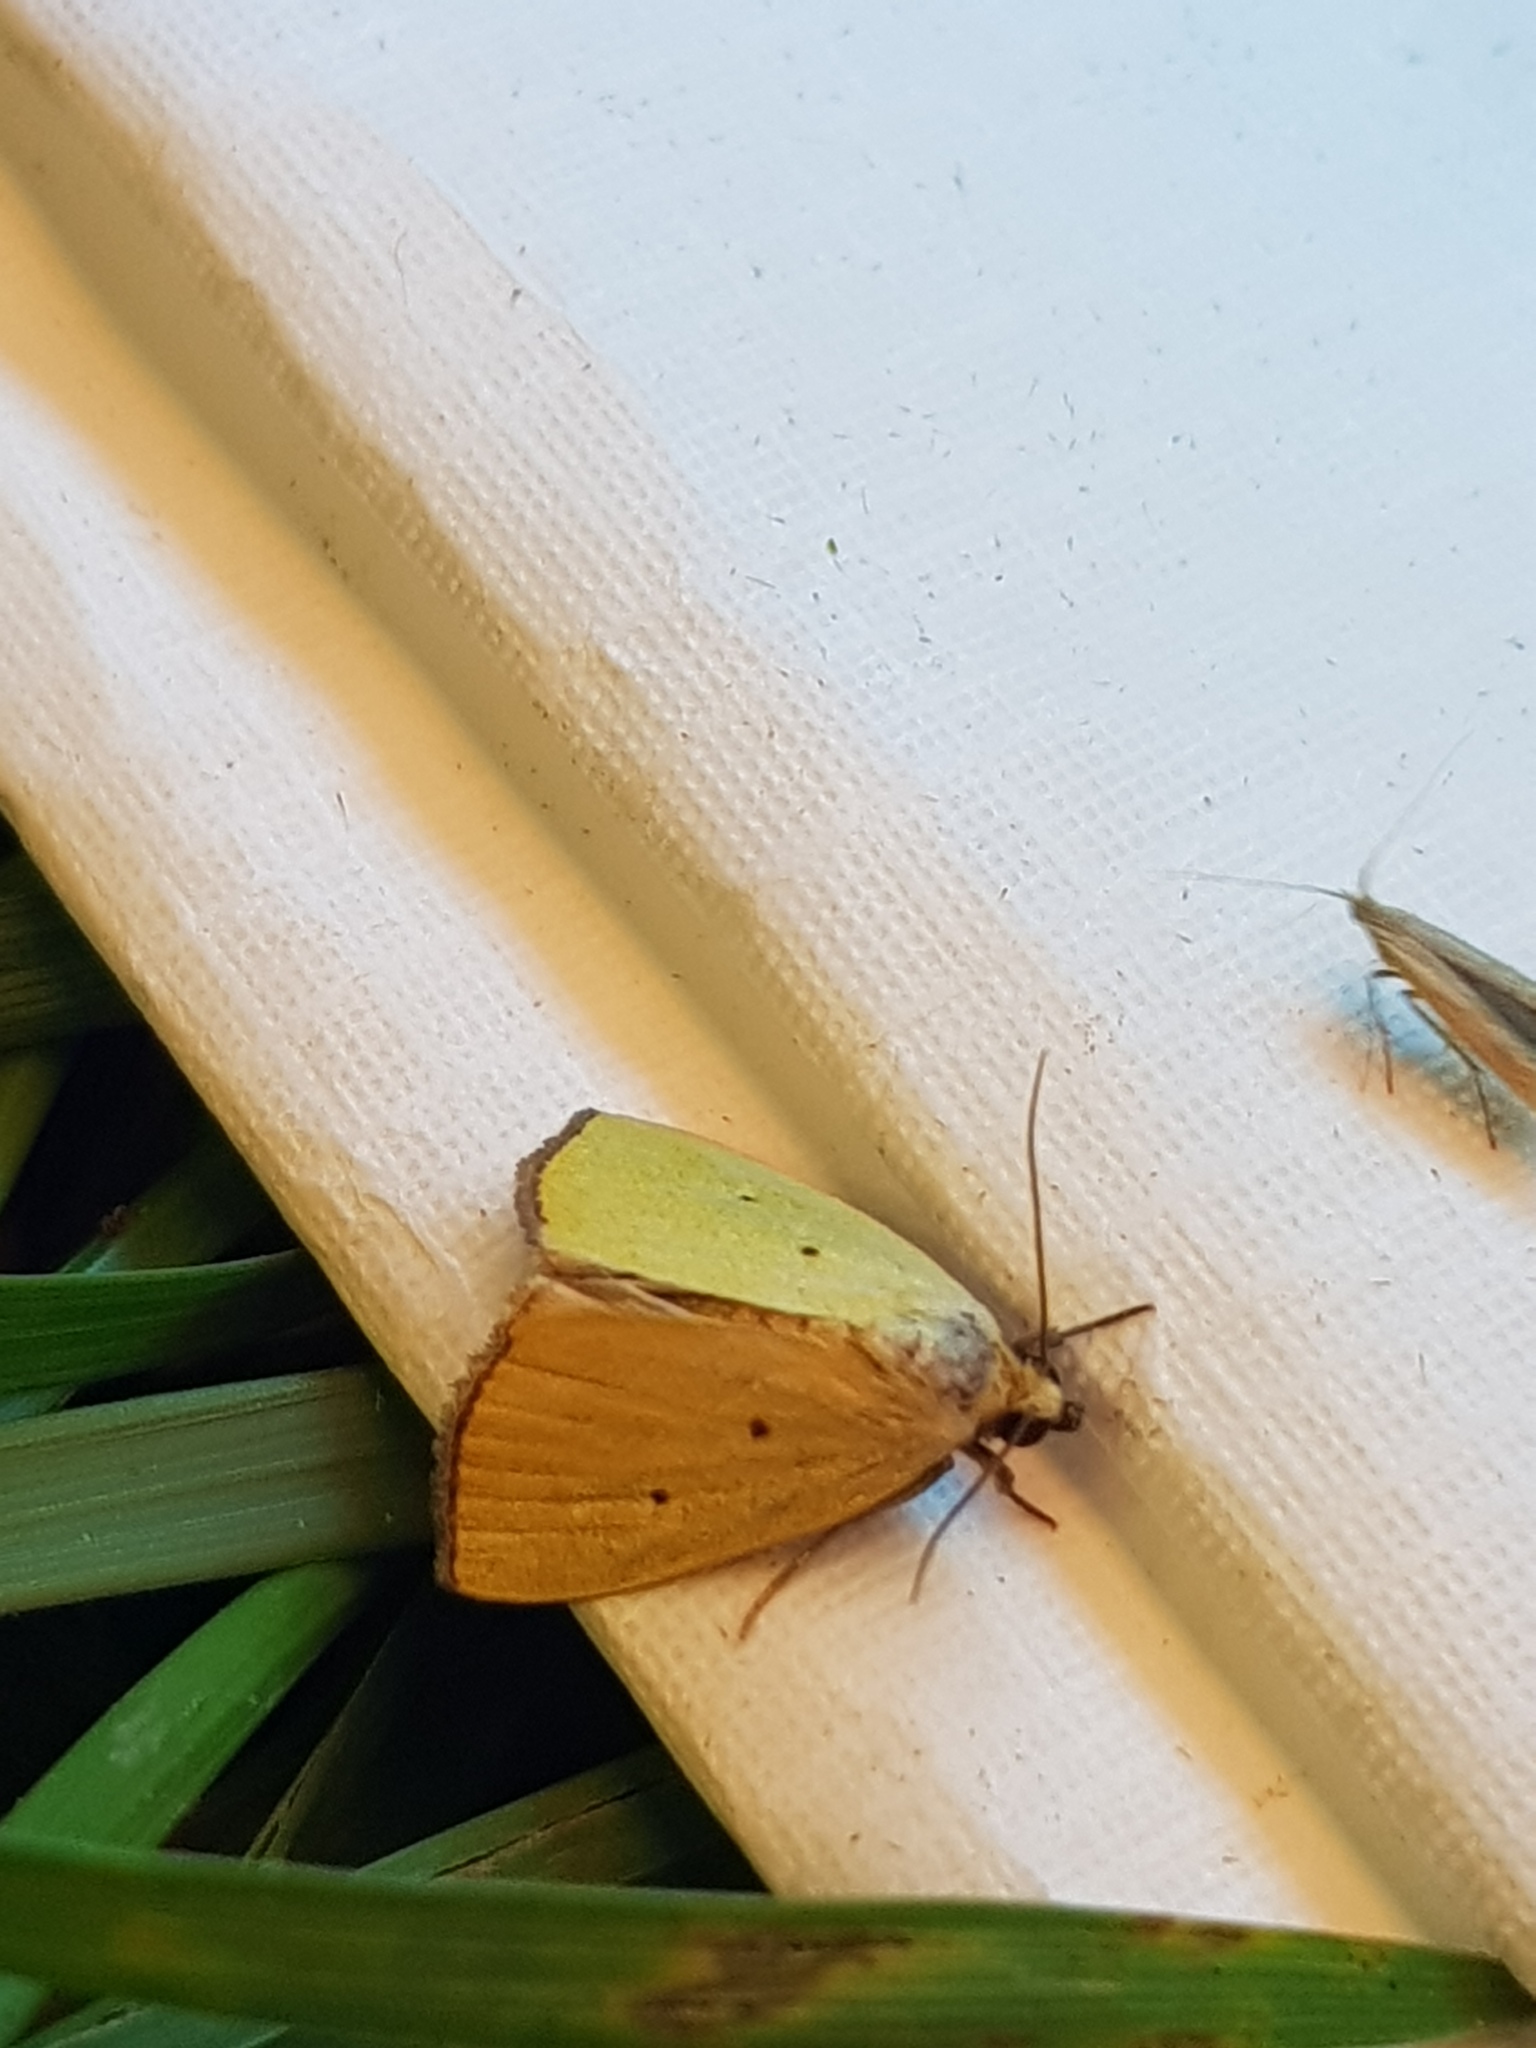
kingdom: Animalia
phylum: Arthropoda
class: Insecta
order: Lepidoptera
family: Noctuidae
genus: Marimatha
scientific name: Marimatha nigrofimbria
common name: Black-bordered lemon moth
